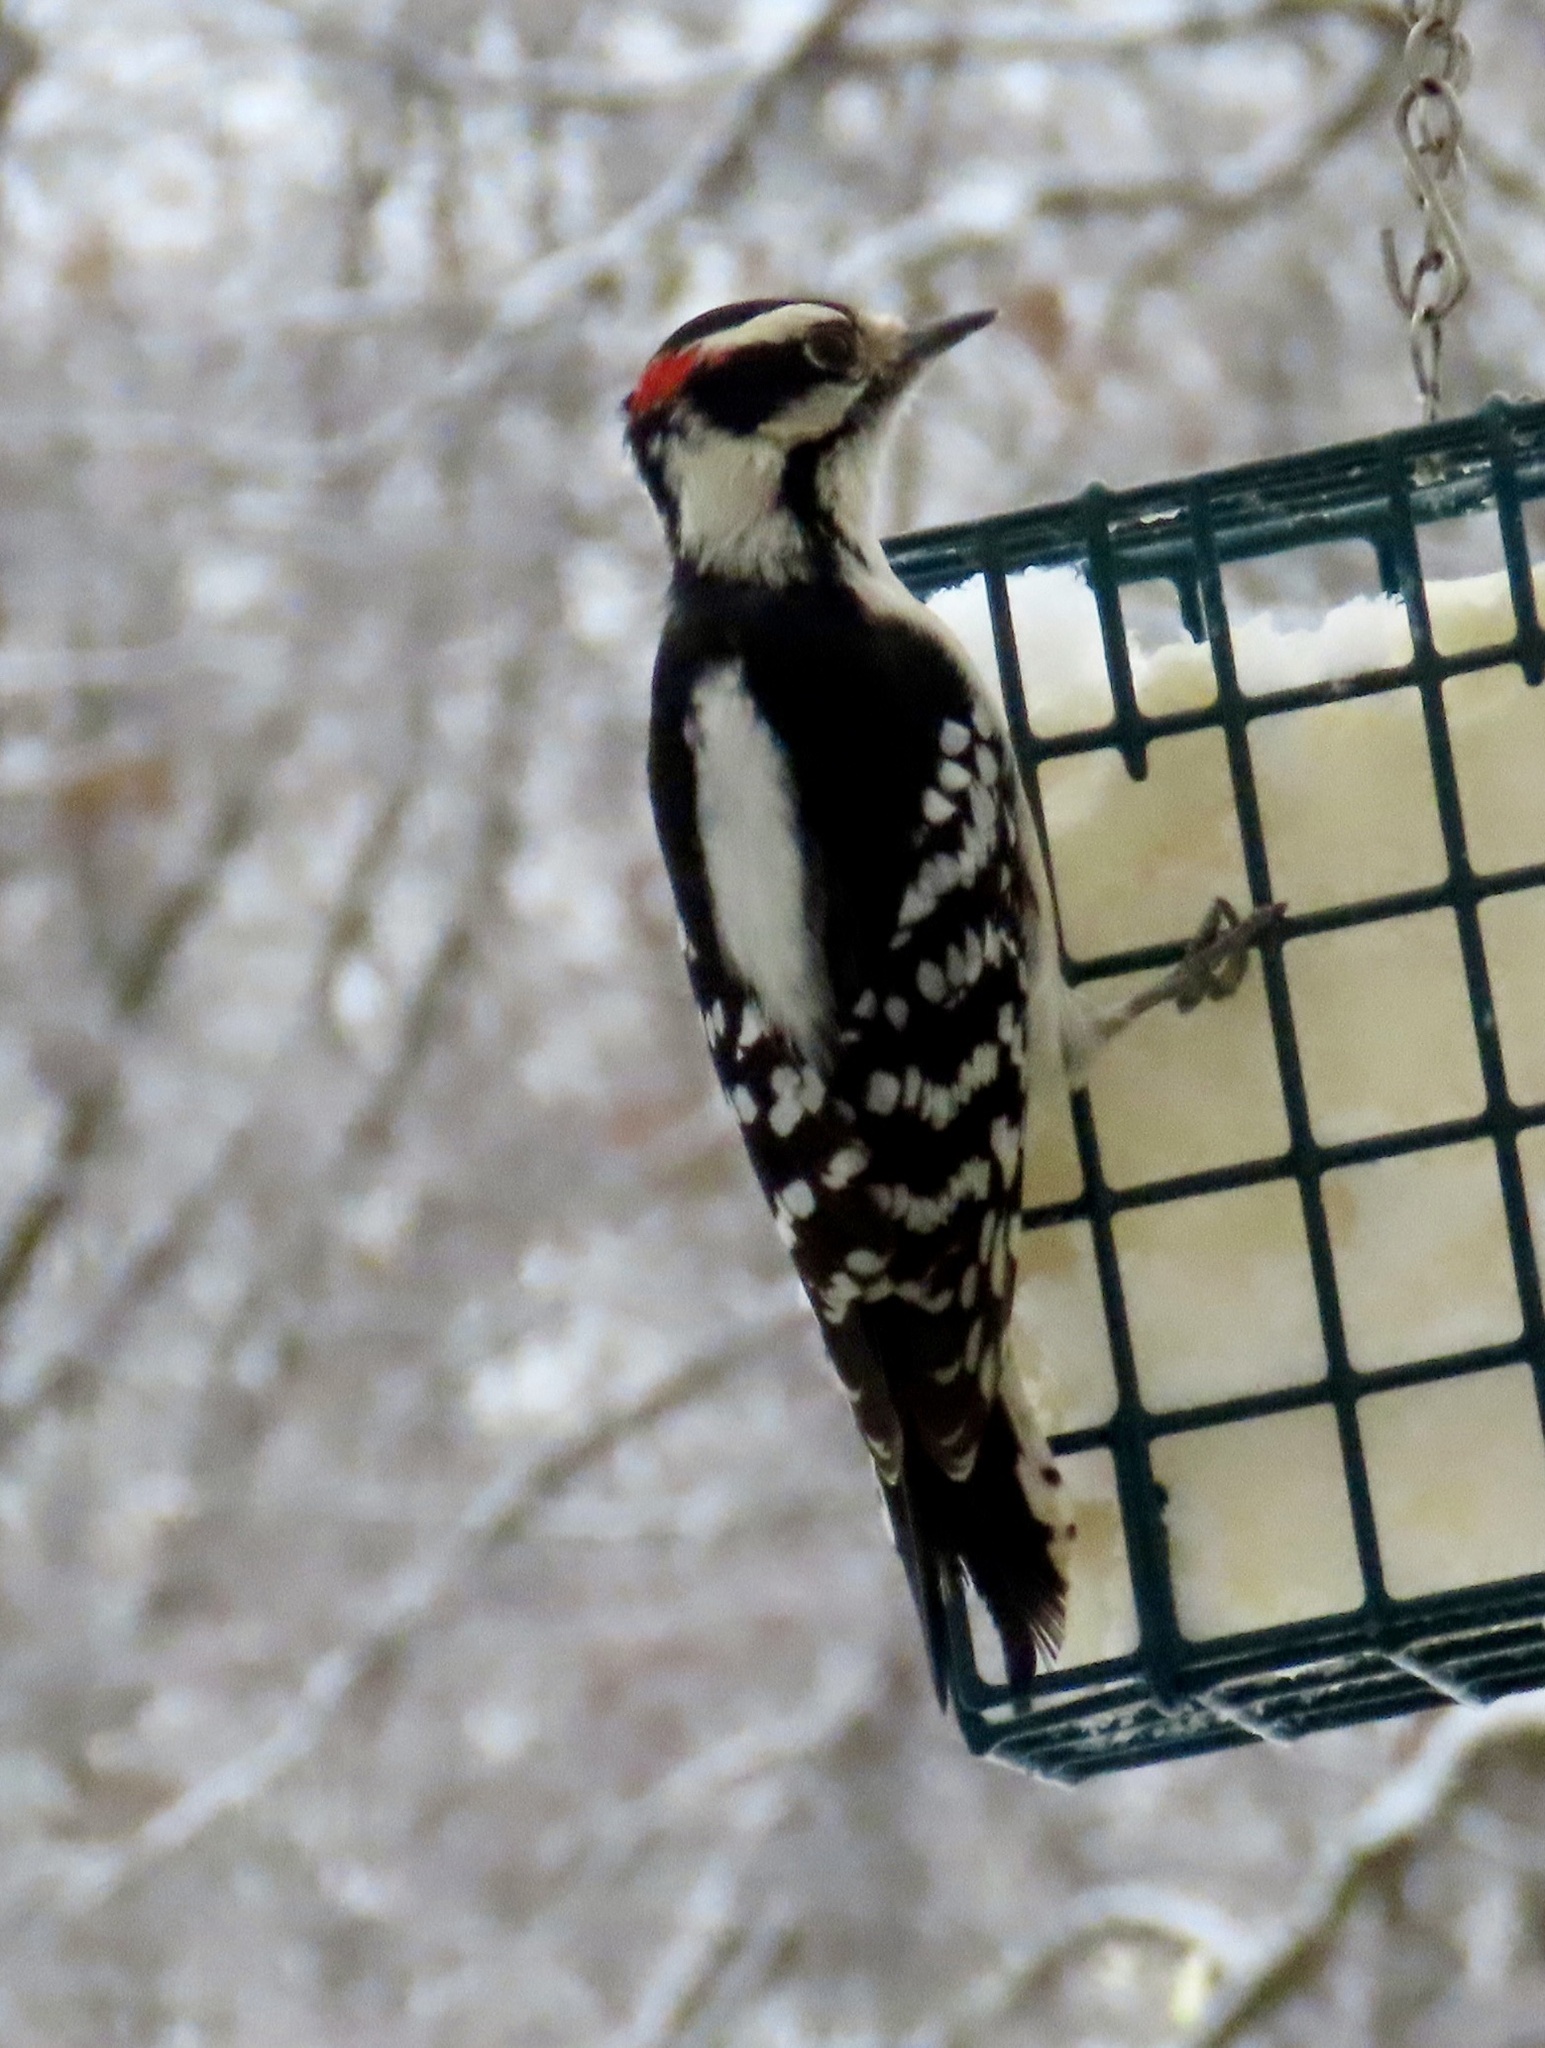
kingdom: Animalia
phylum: Chordata
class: Aves
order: Piciformes
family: Picidae
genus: Dryobates
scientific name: Dryobates pubescens
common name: Downy woodpecker
